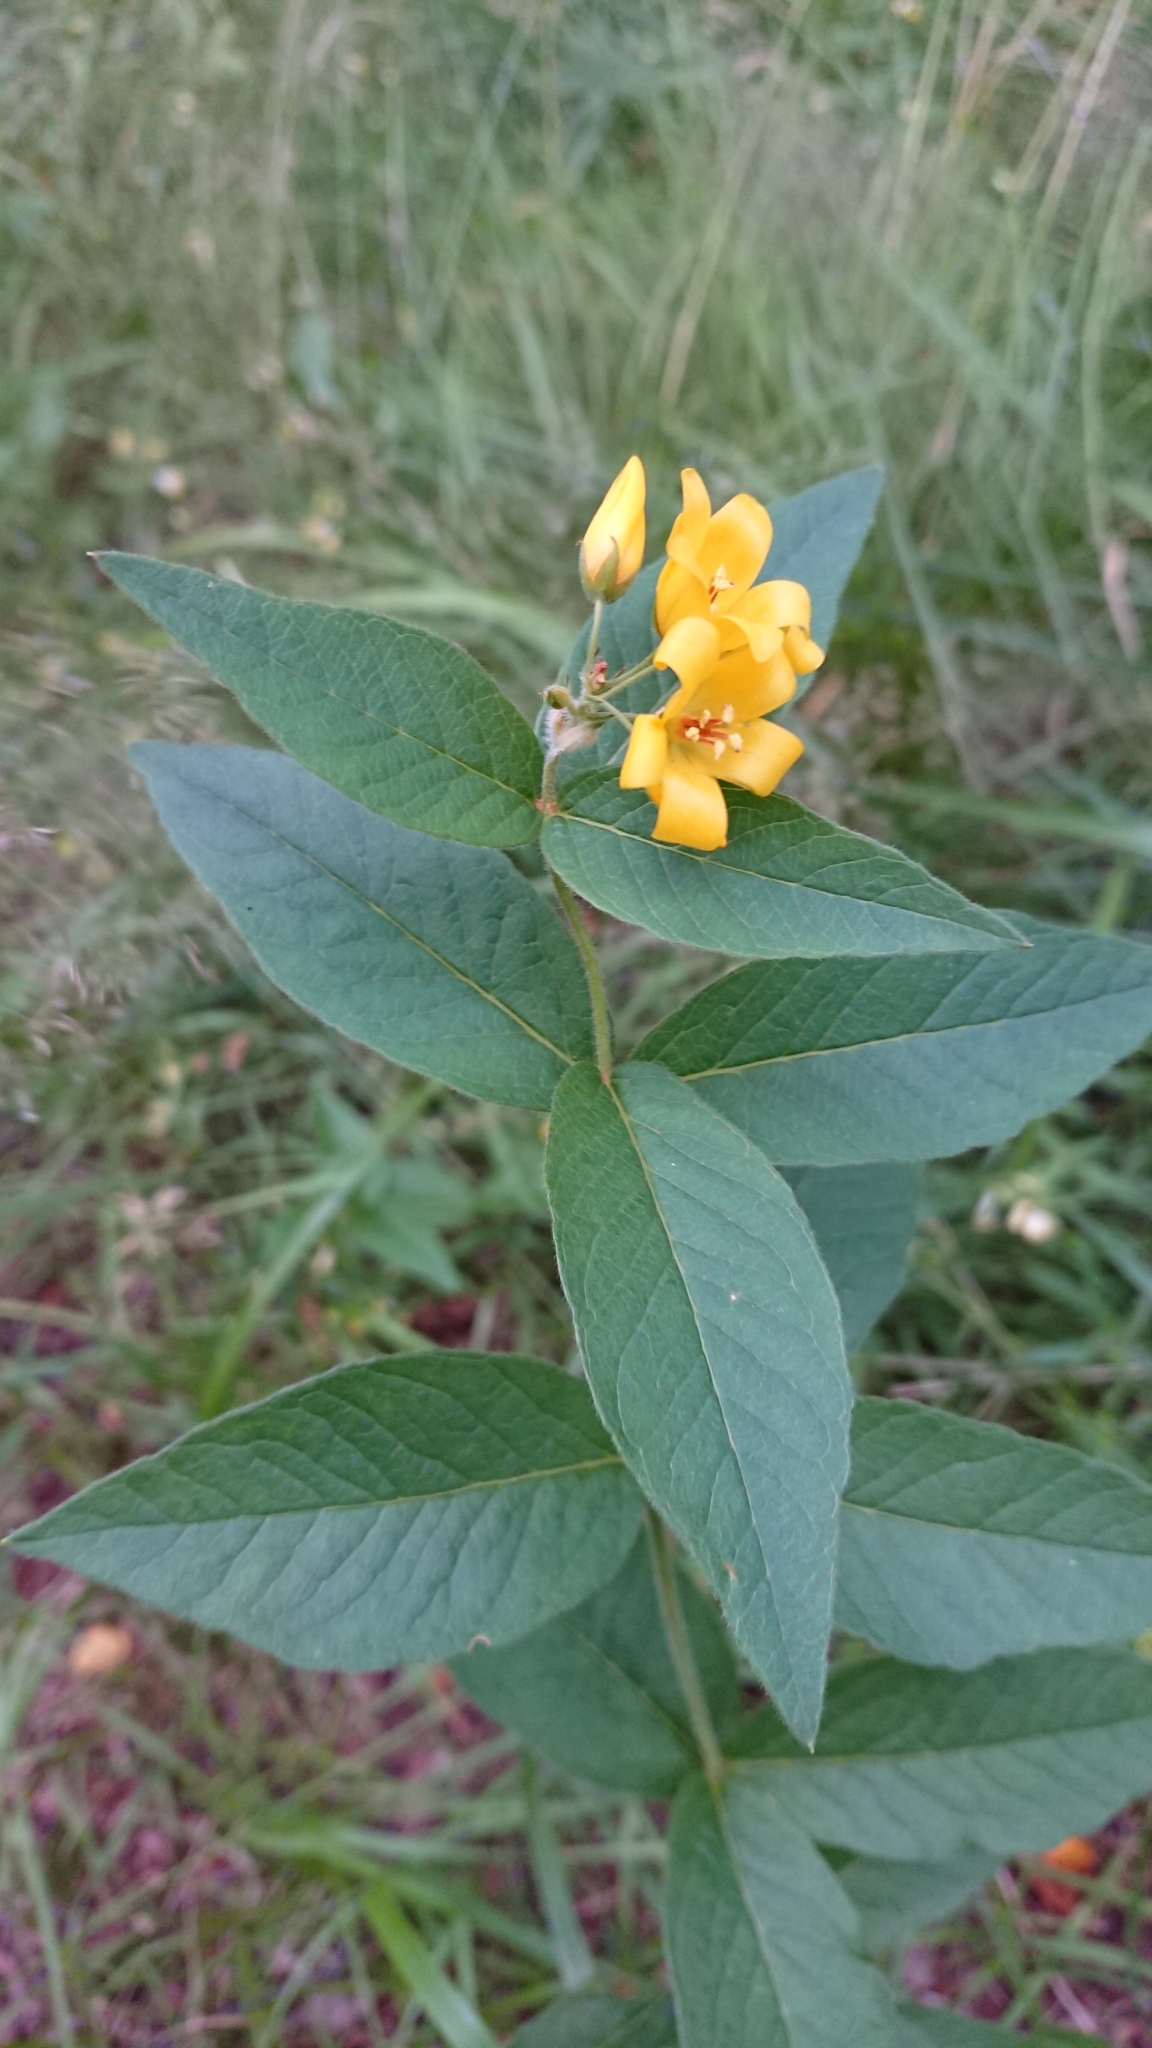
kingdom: Plantae
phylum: Tracheophyta
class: Magnoliopsida
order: Ericales
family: Primulaceae
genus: Lysimachia
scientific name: Lysimachia vulgaris
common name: Yellow loosestrife
